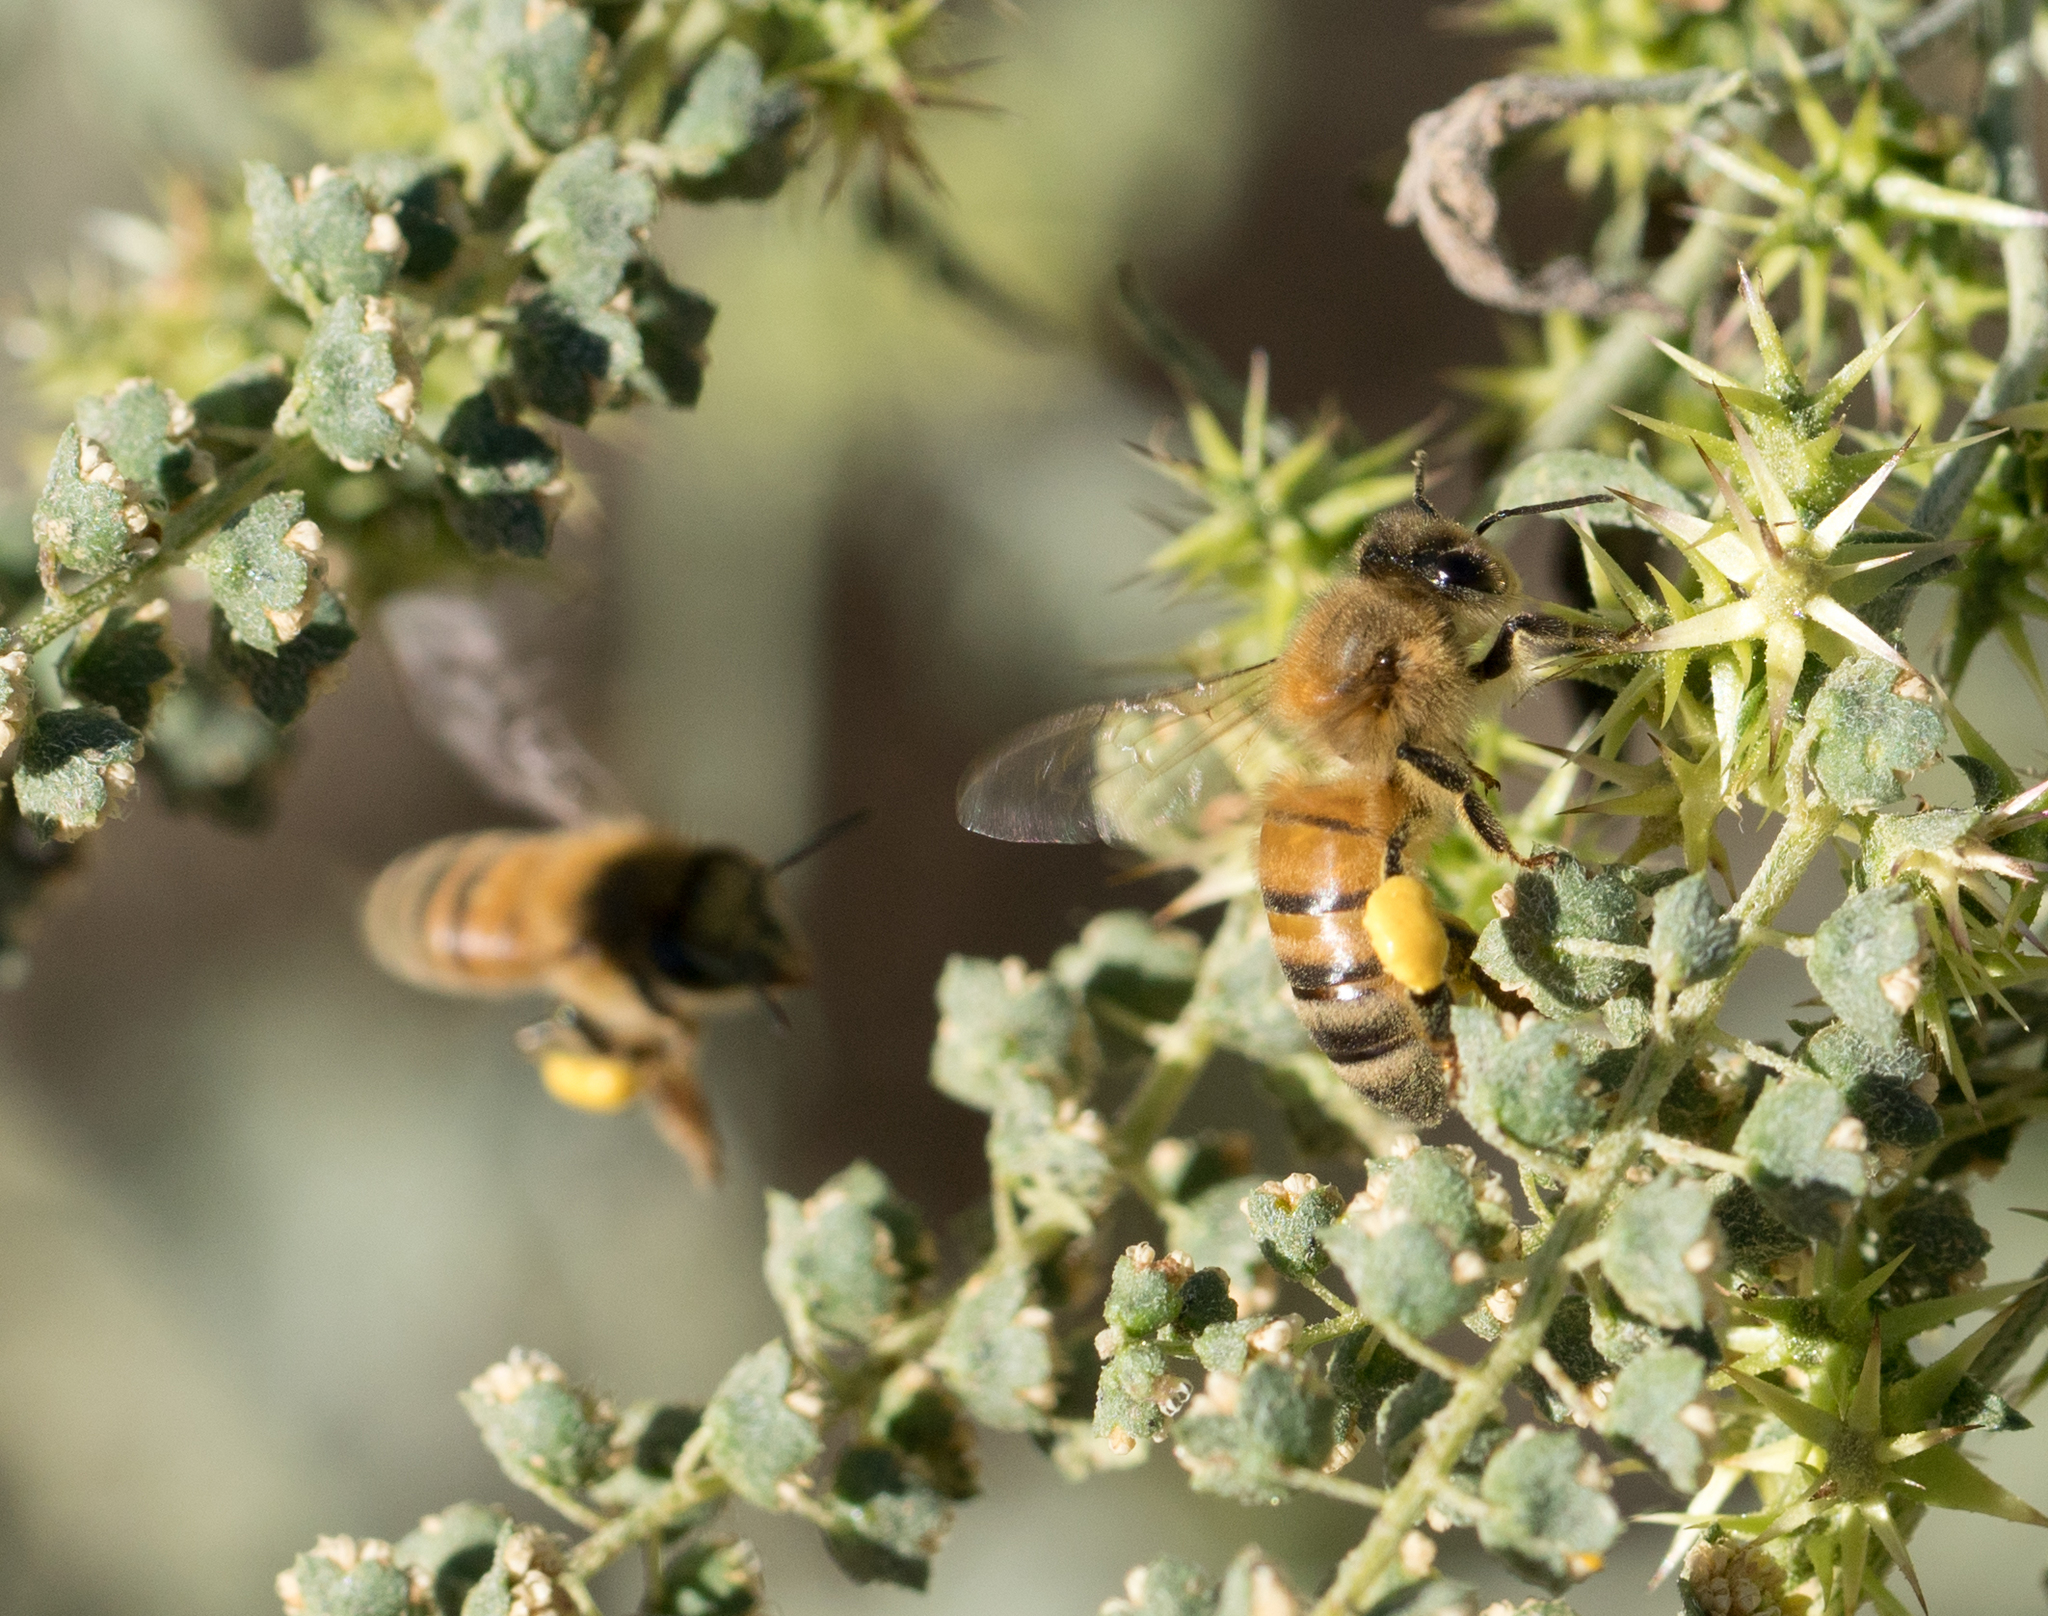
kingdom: Animalia
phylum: Arthropoda
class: Insecta
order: Hymenoptera
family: Apidae
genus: Apis
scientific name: Apis mellifera
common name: Honey bee
